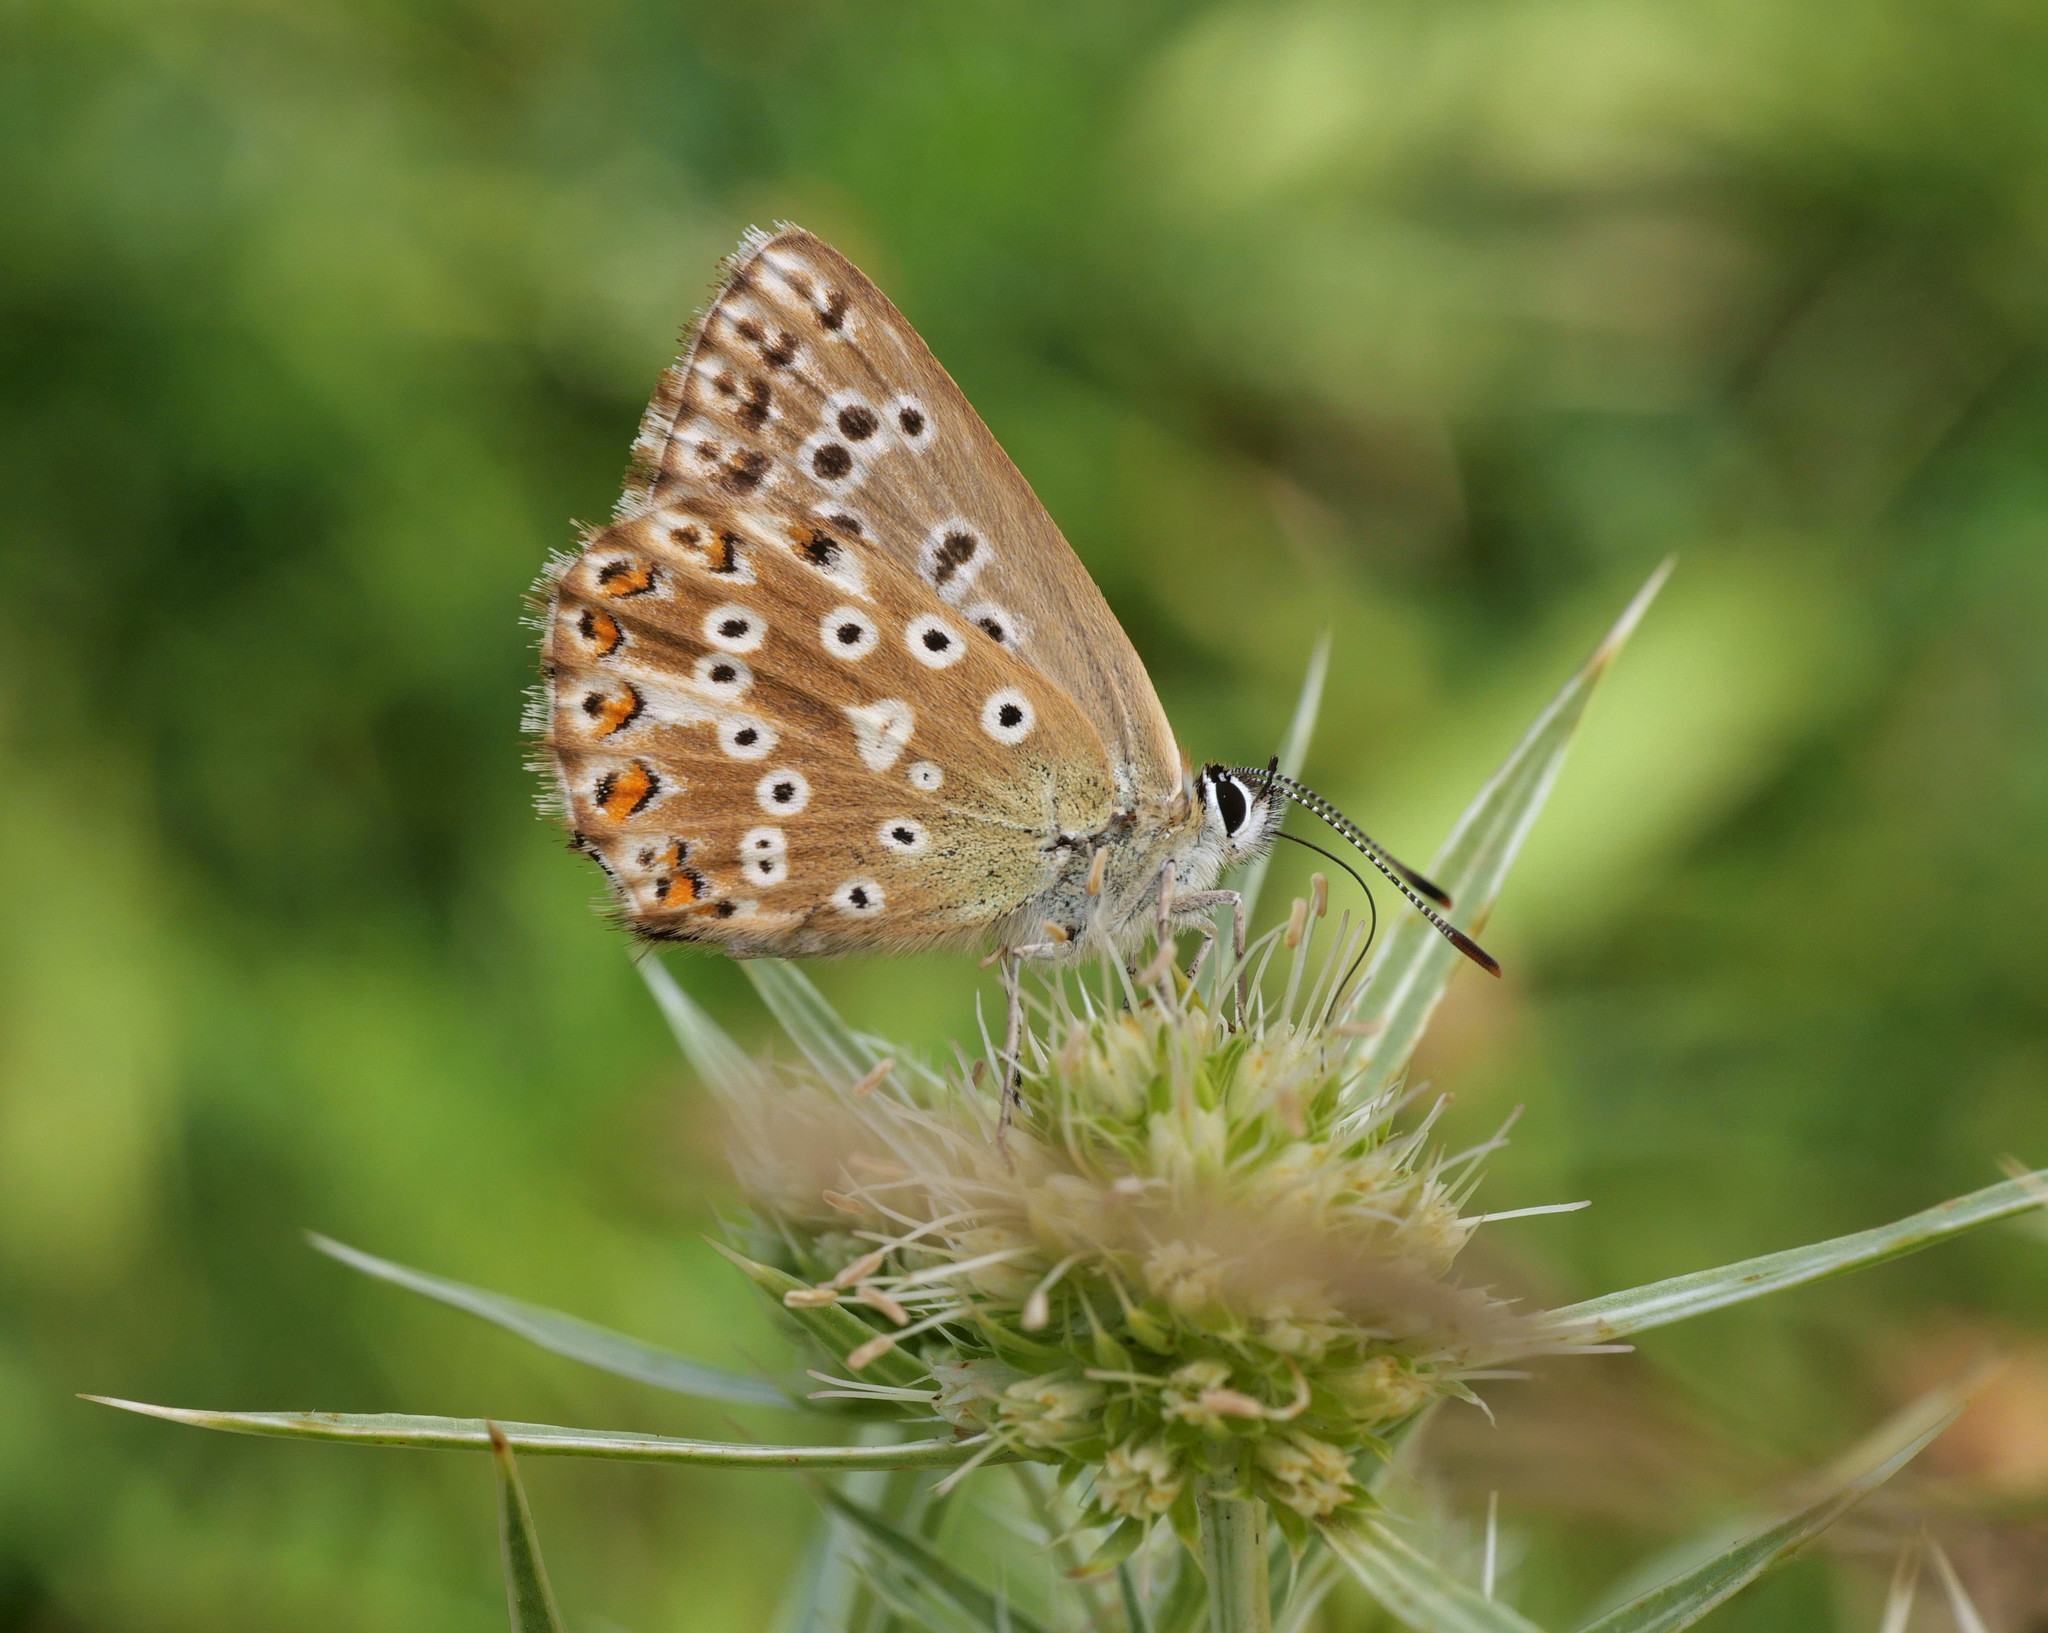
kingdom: Animalia
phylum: Arthropoda
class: Insecta
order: Lepidoptera
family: Lycaenidae
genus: Lysandra
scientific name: Lysandra coridon
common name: Chalkhill blue
